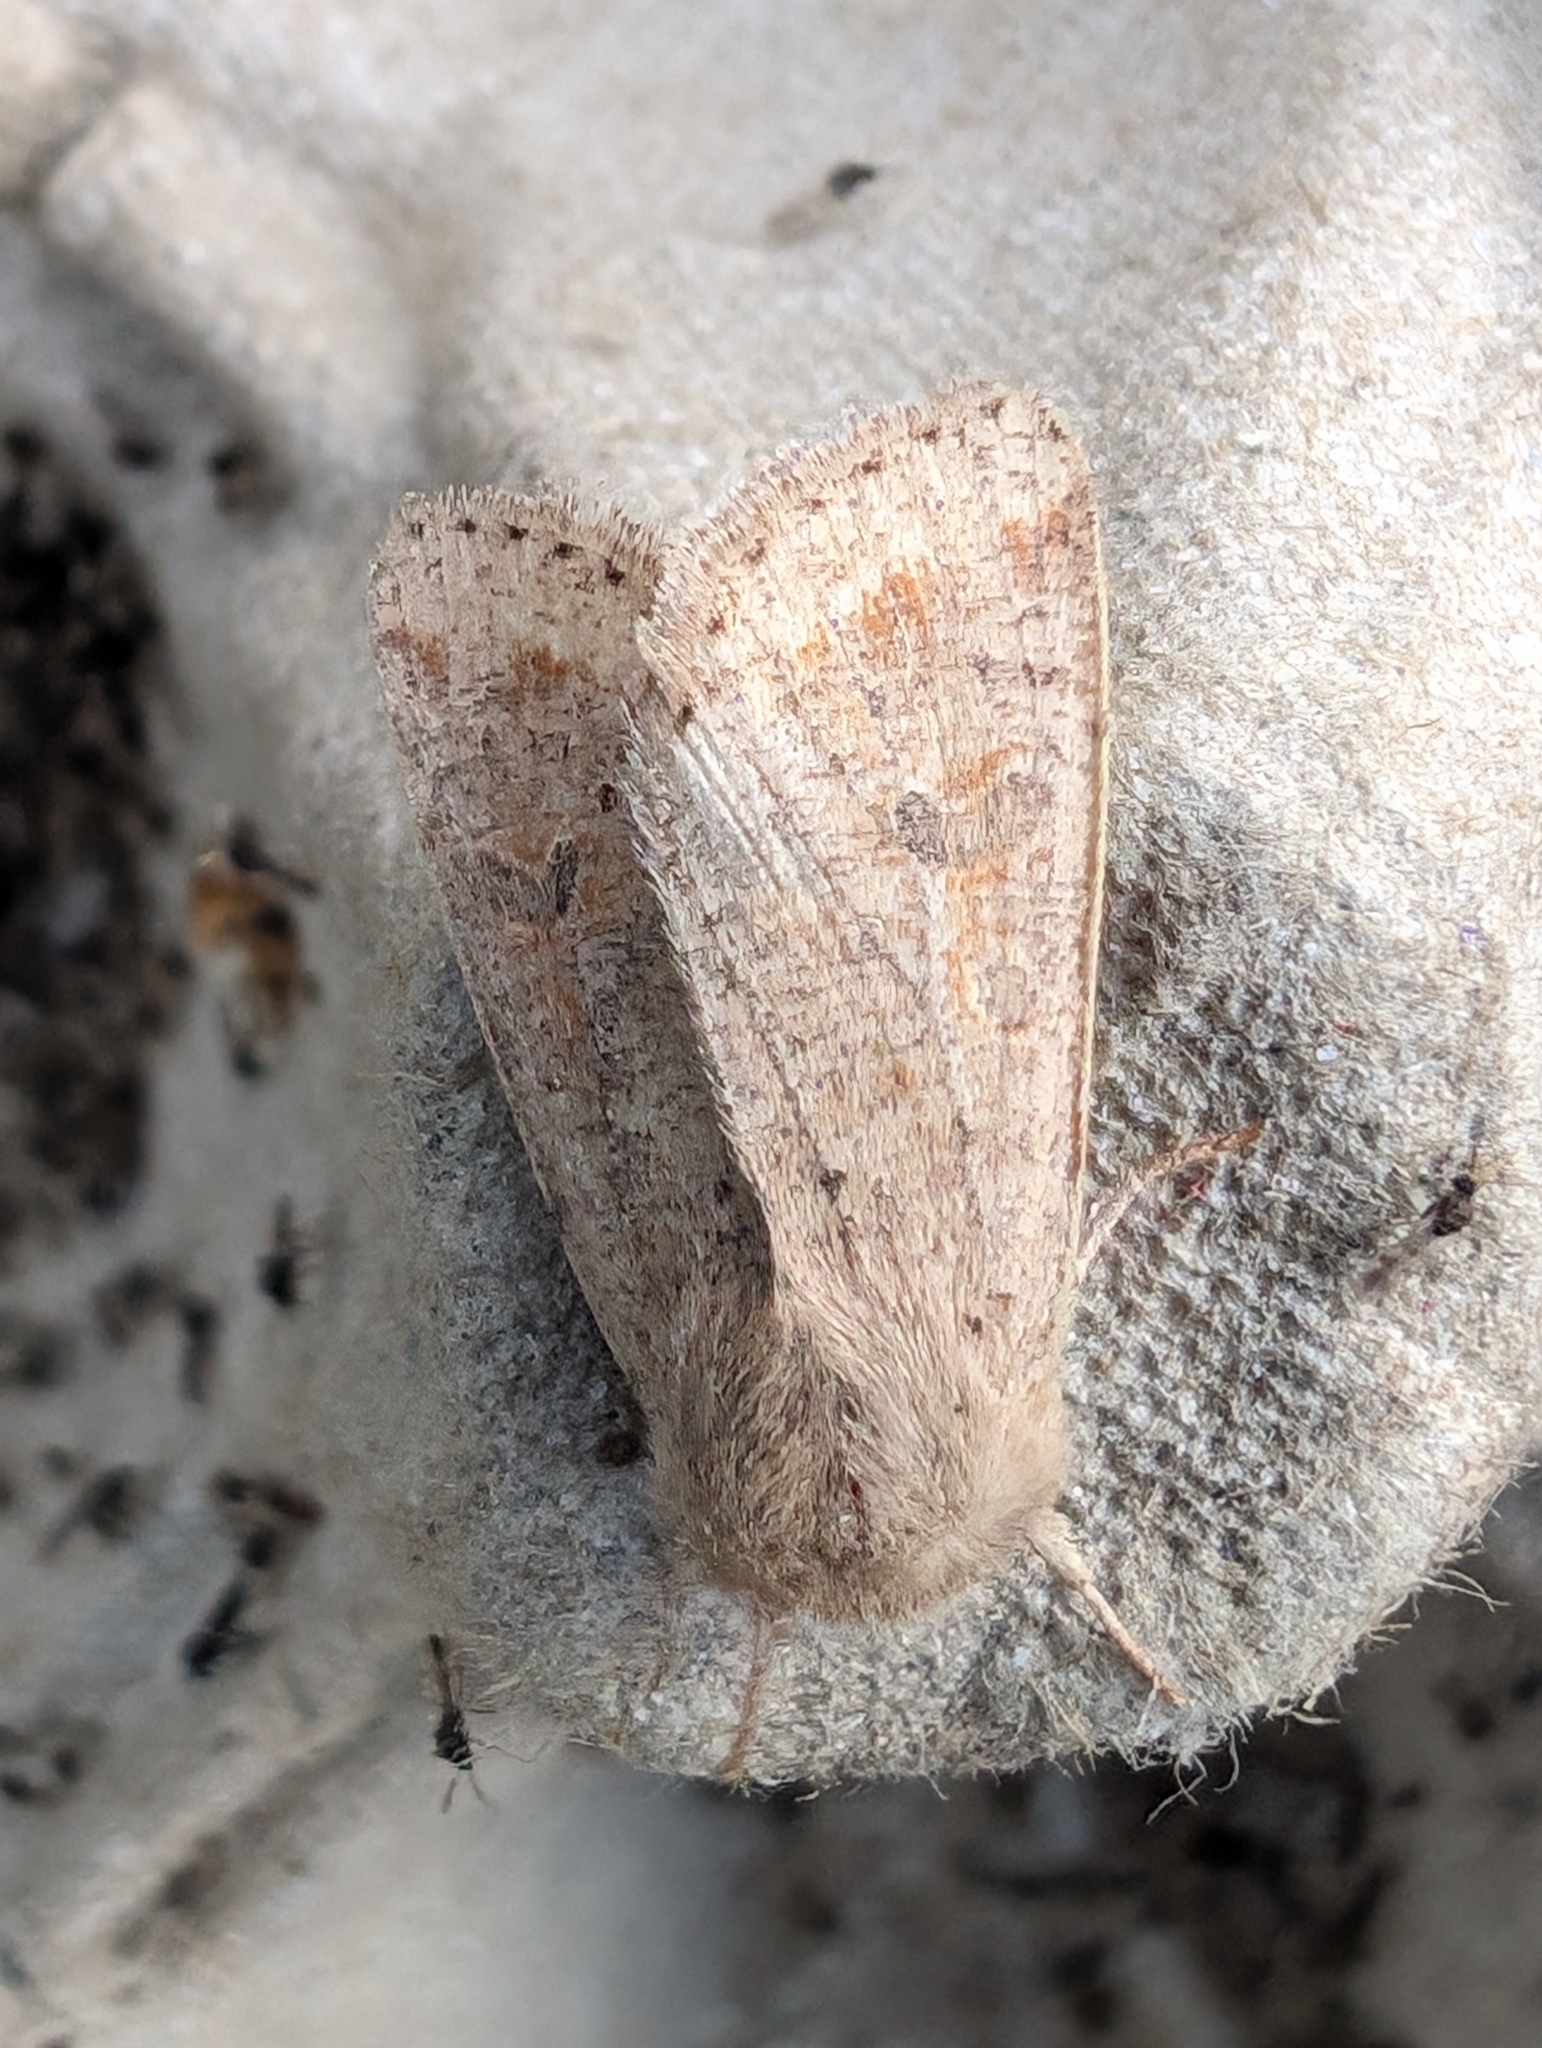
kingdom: Animalia
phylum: Arthropoda
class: Insecta
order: Lepidoptera
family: Noctuidae
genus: Orthosia
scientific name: Orthosia cruda
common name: Small quaker
